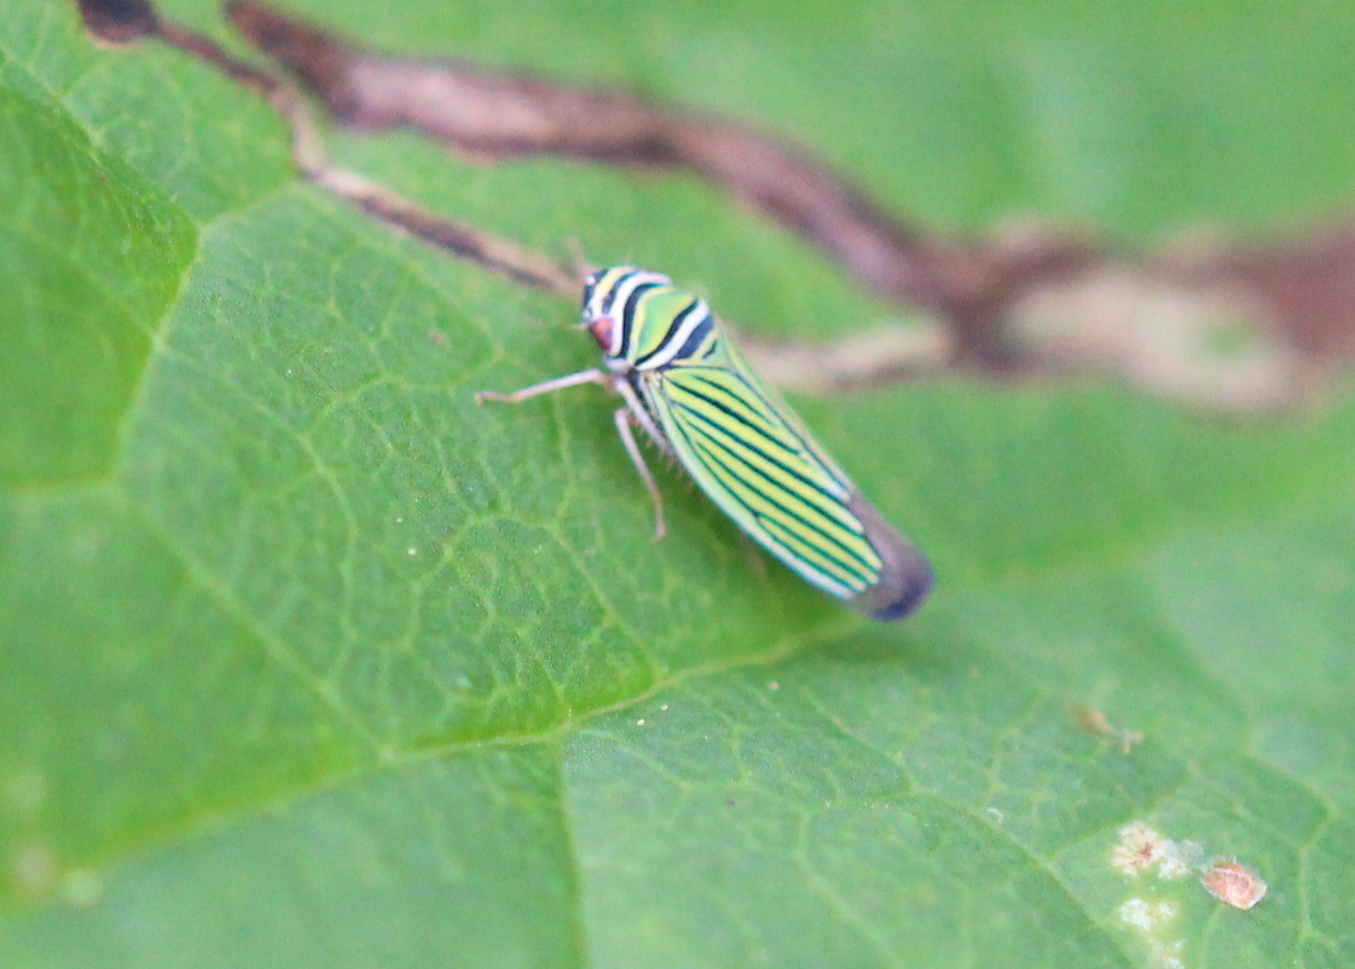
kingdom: Animalia
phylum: Arthropoda
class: Insecta
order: Hemiptera
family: Cicadellidae
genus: Tylozygus
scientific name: Tylozygus bifidus
